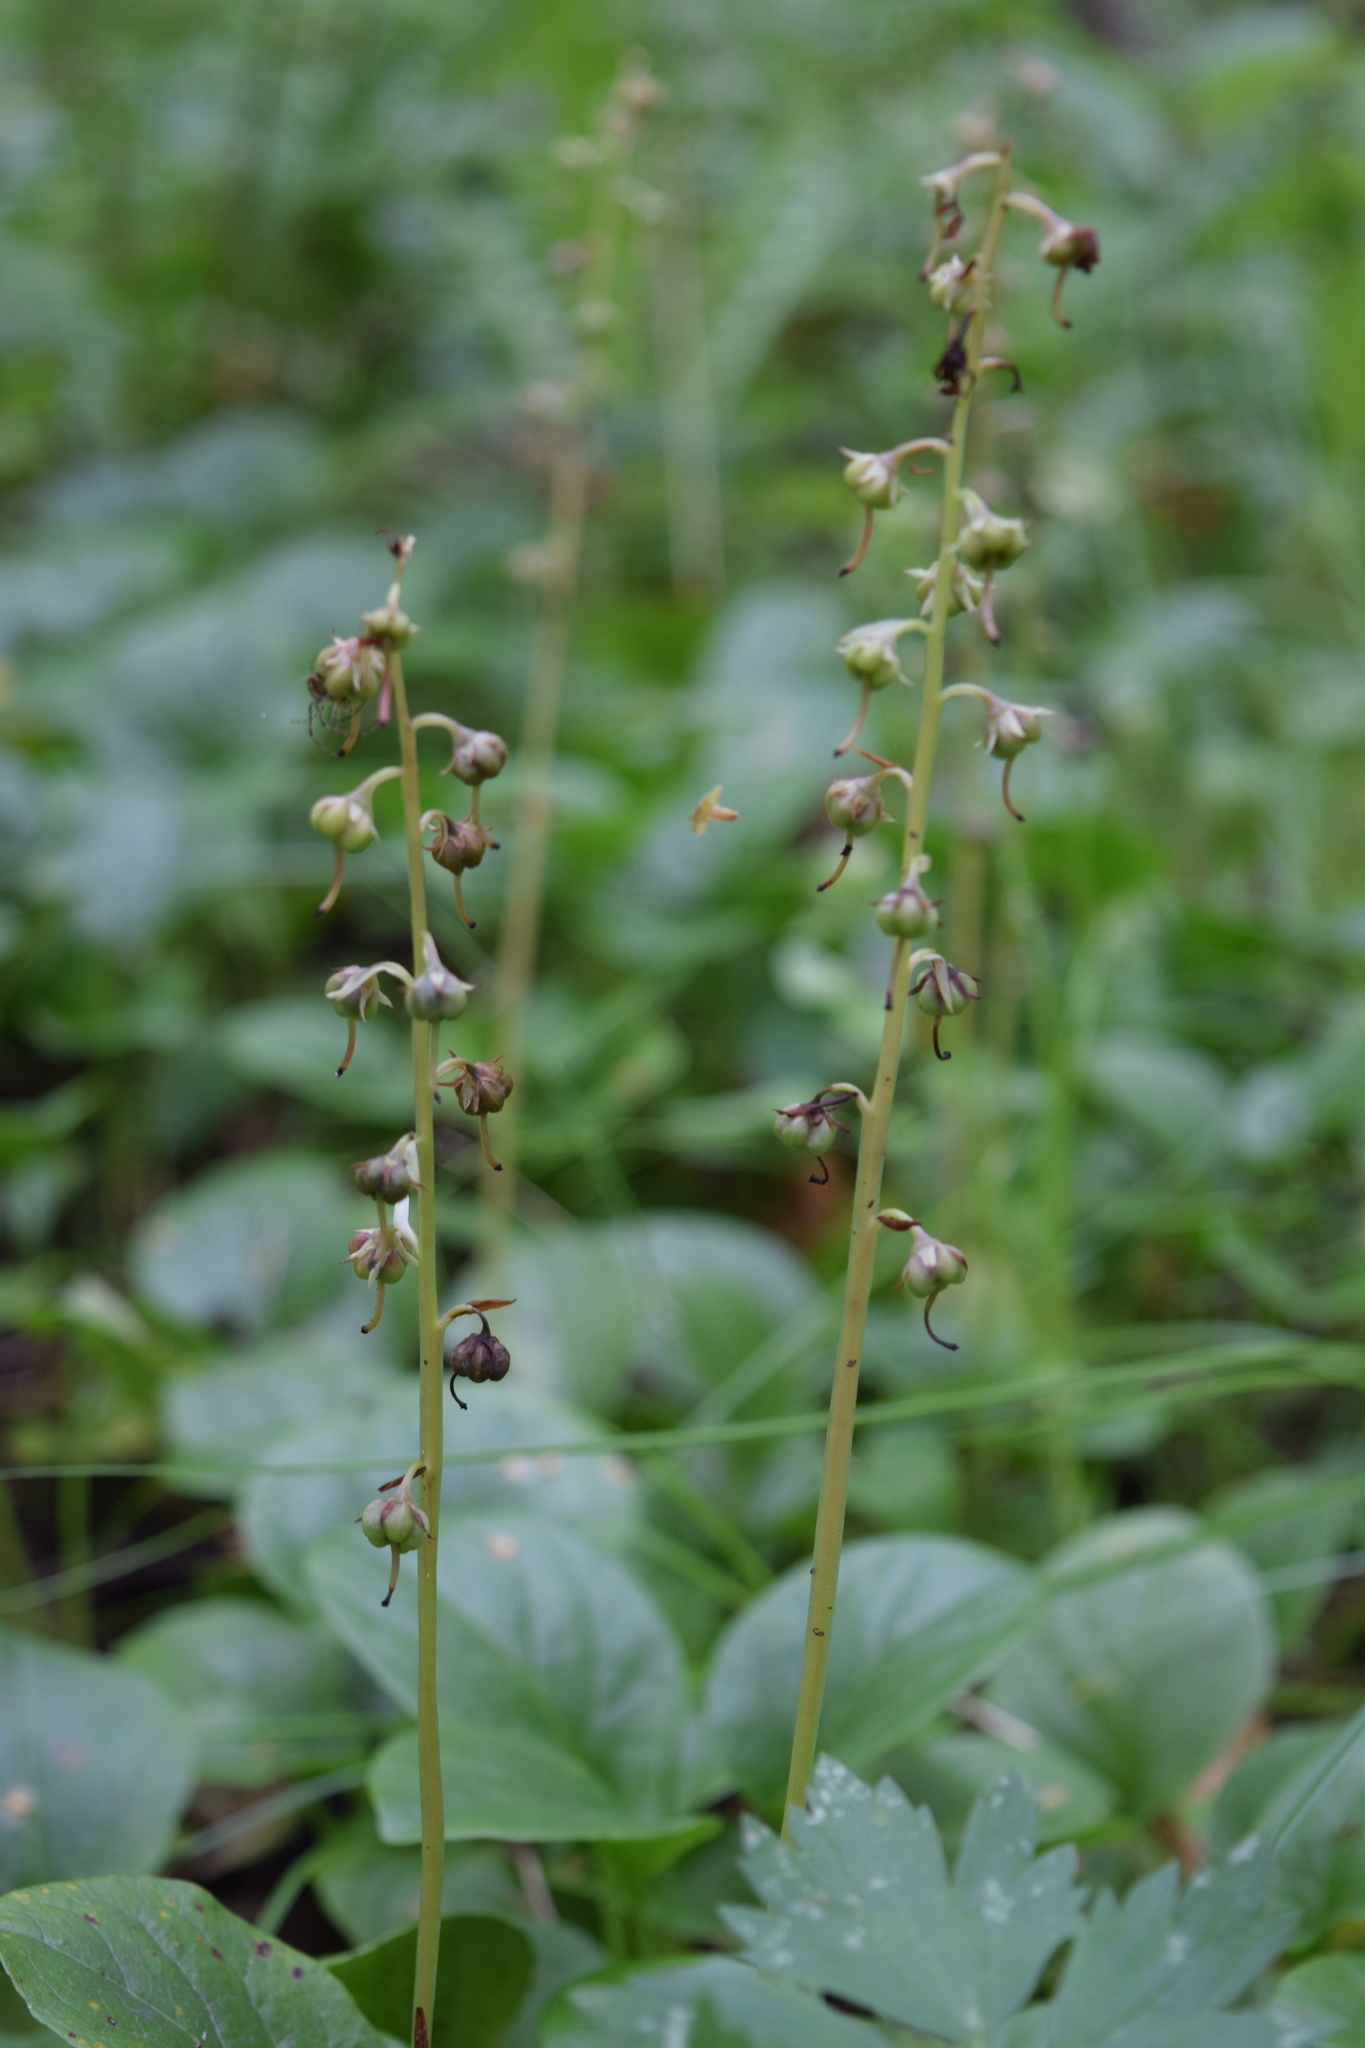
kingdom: Plantae
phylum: Tracheophyta
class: Magnoliopsida
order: Ericales
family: Ericaceae
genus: Pyrola
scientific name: Pyrola rotundifolia
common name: Round-leaved wintergreen
